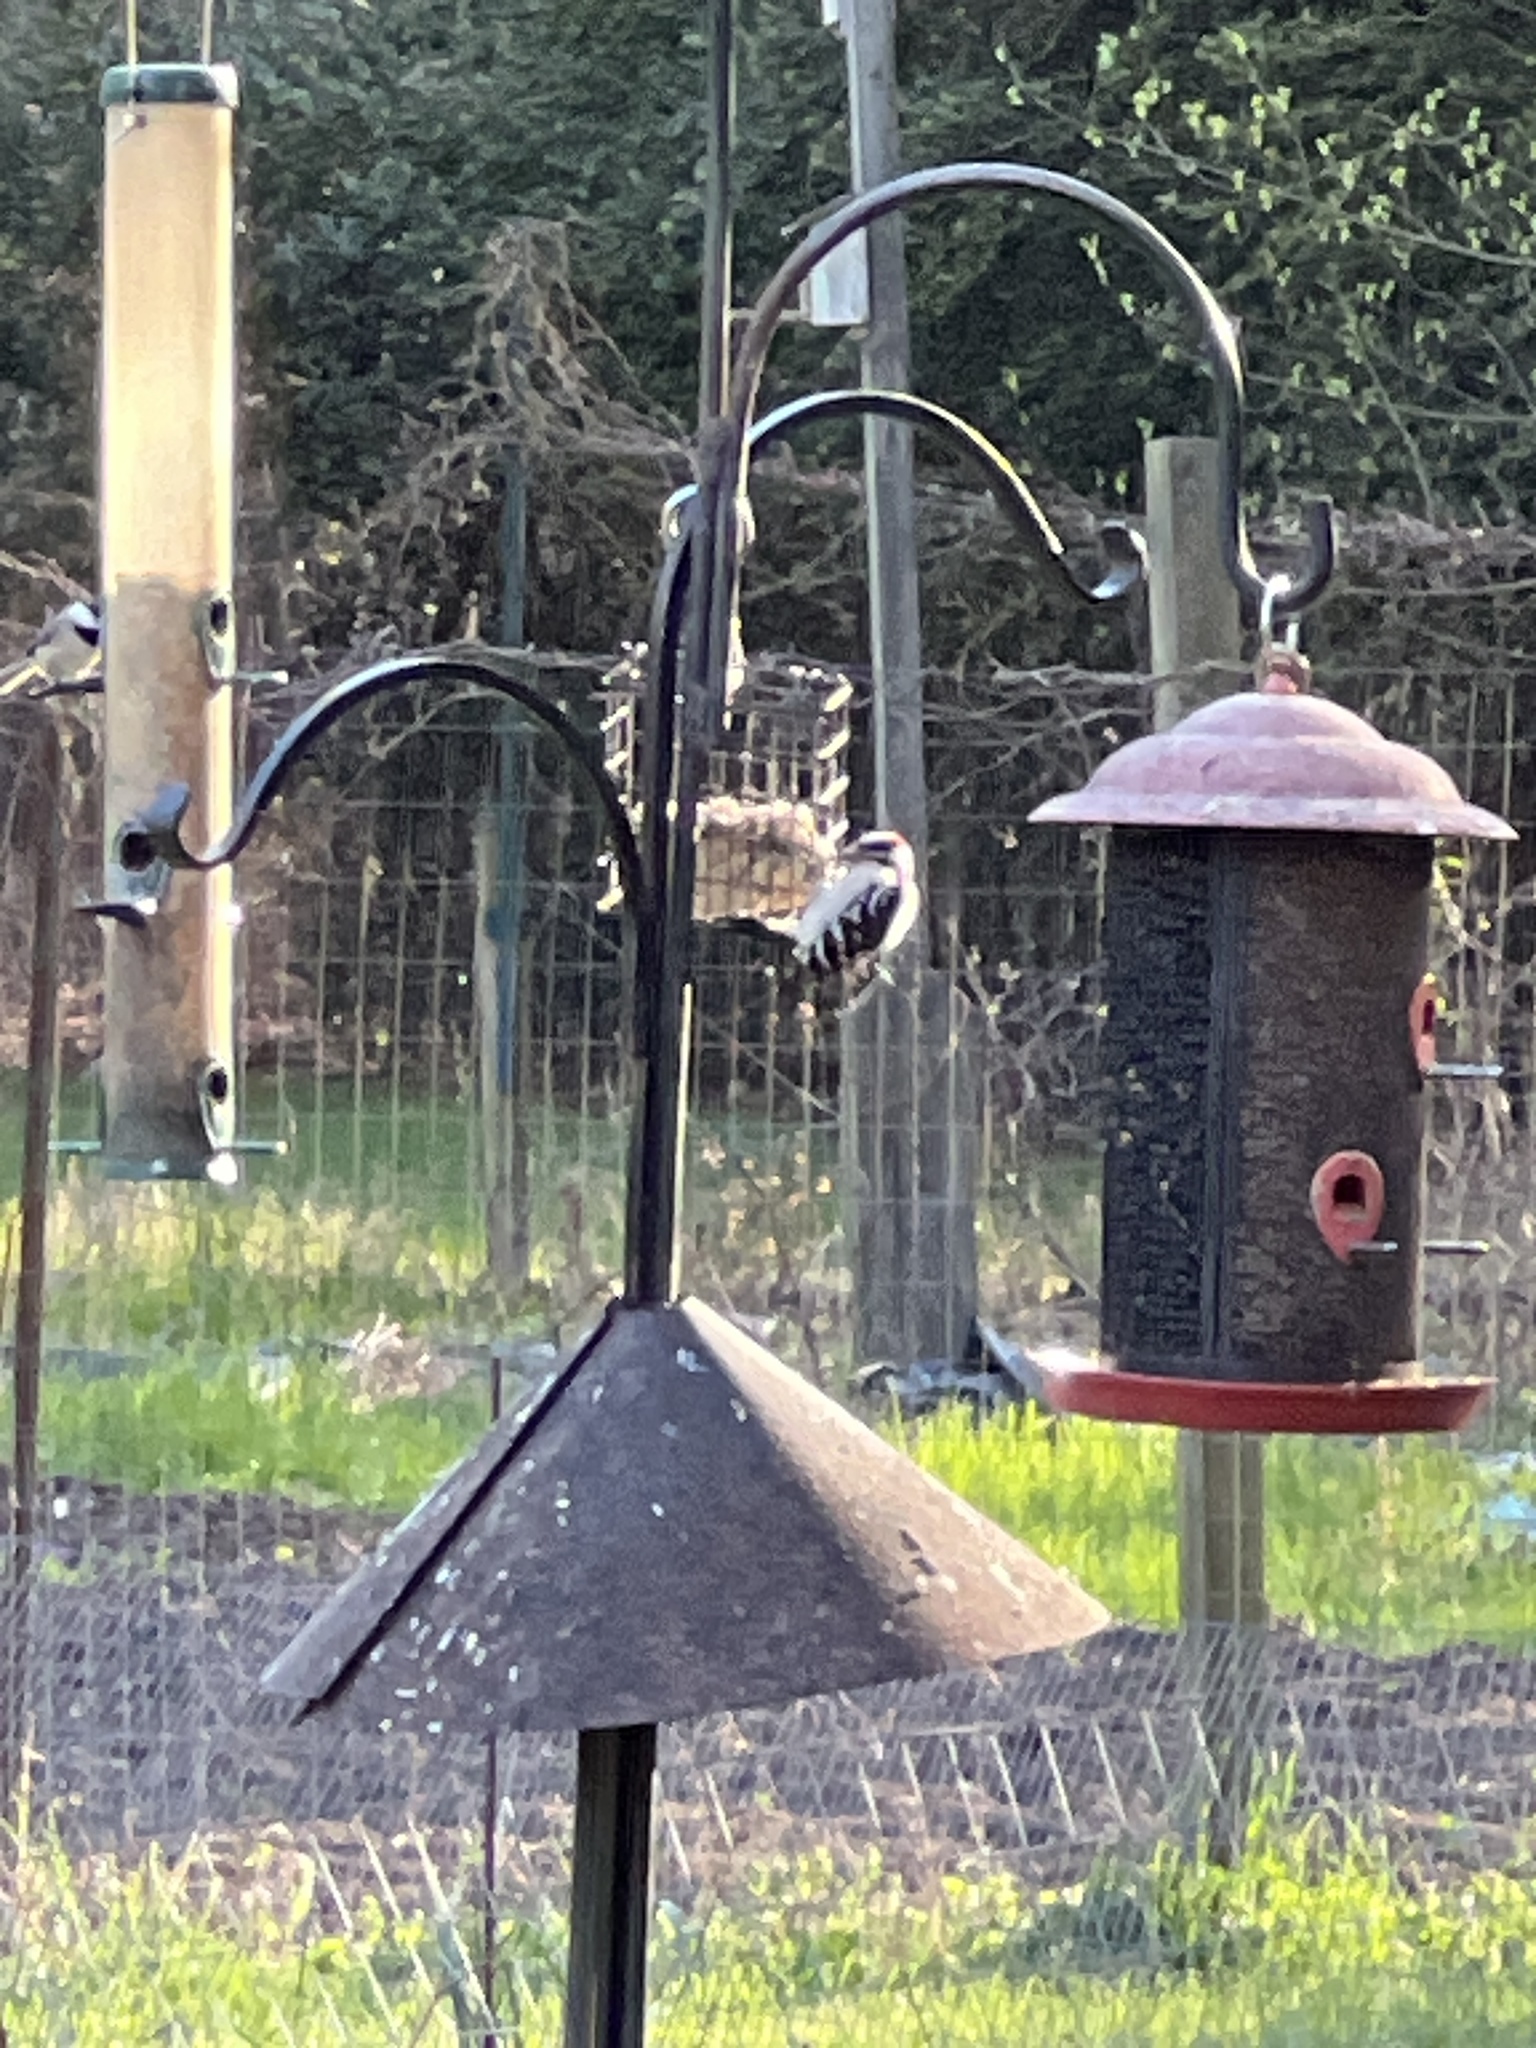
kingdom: Animalia
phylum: Chordata
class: Aves
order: Piciformes
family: Picidae
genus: Dryobates
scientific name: Dryobates pubescens
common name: Downy woodpecker
